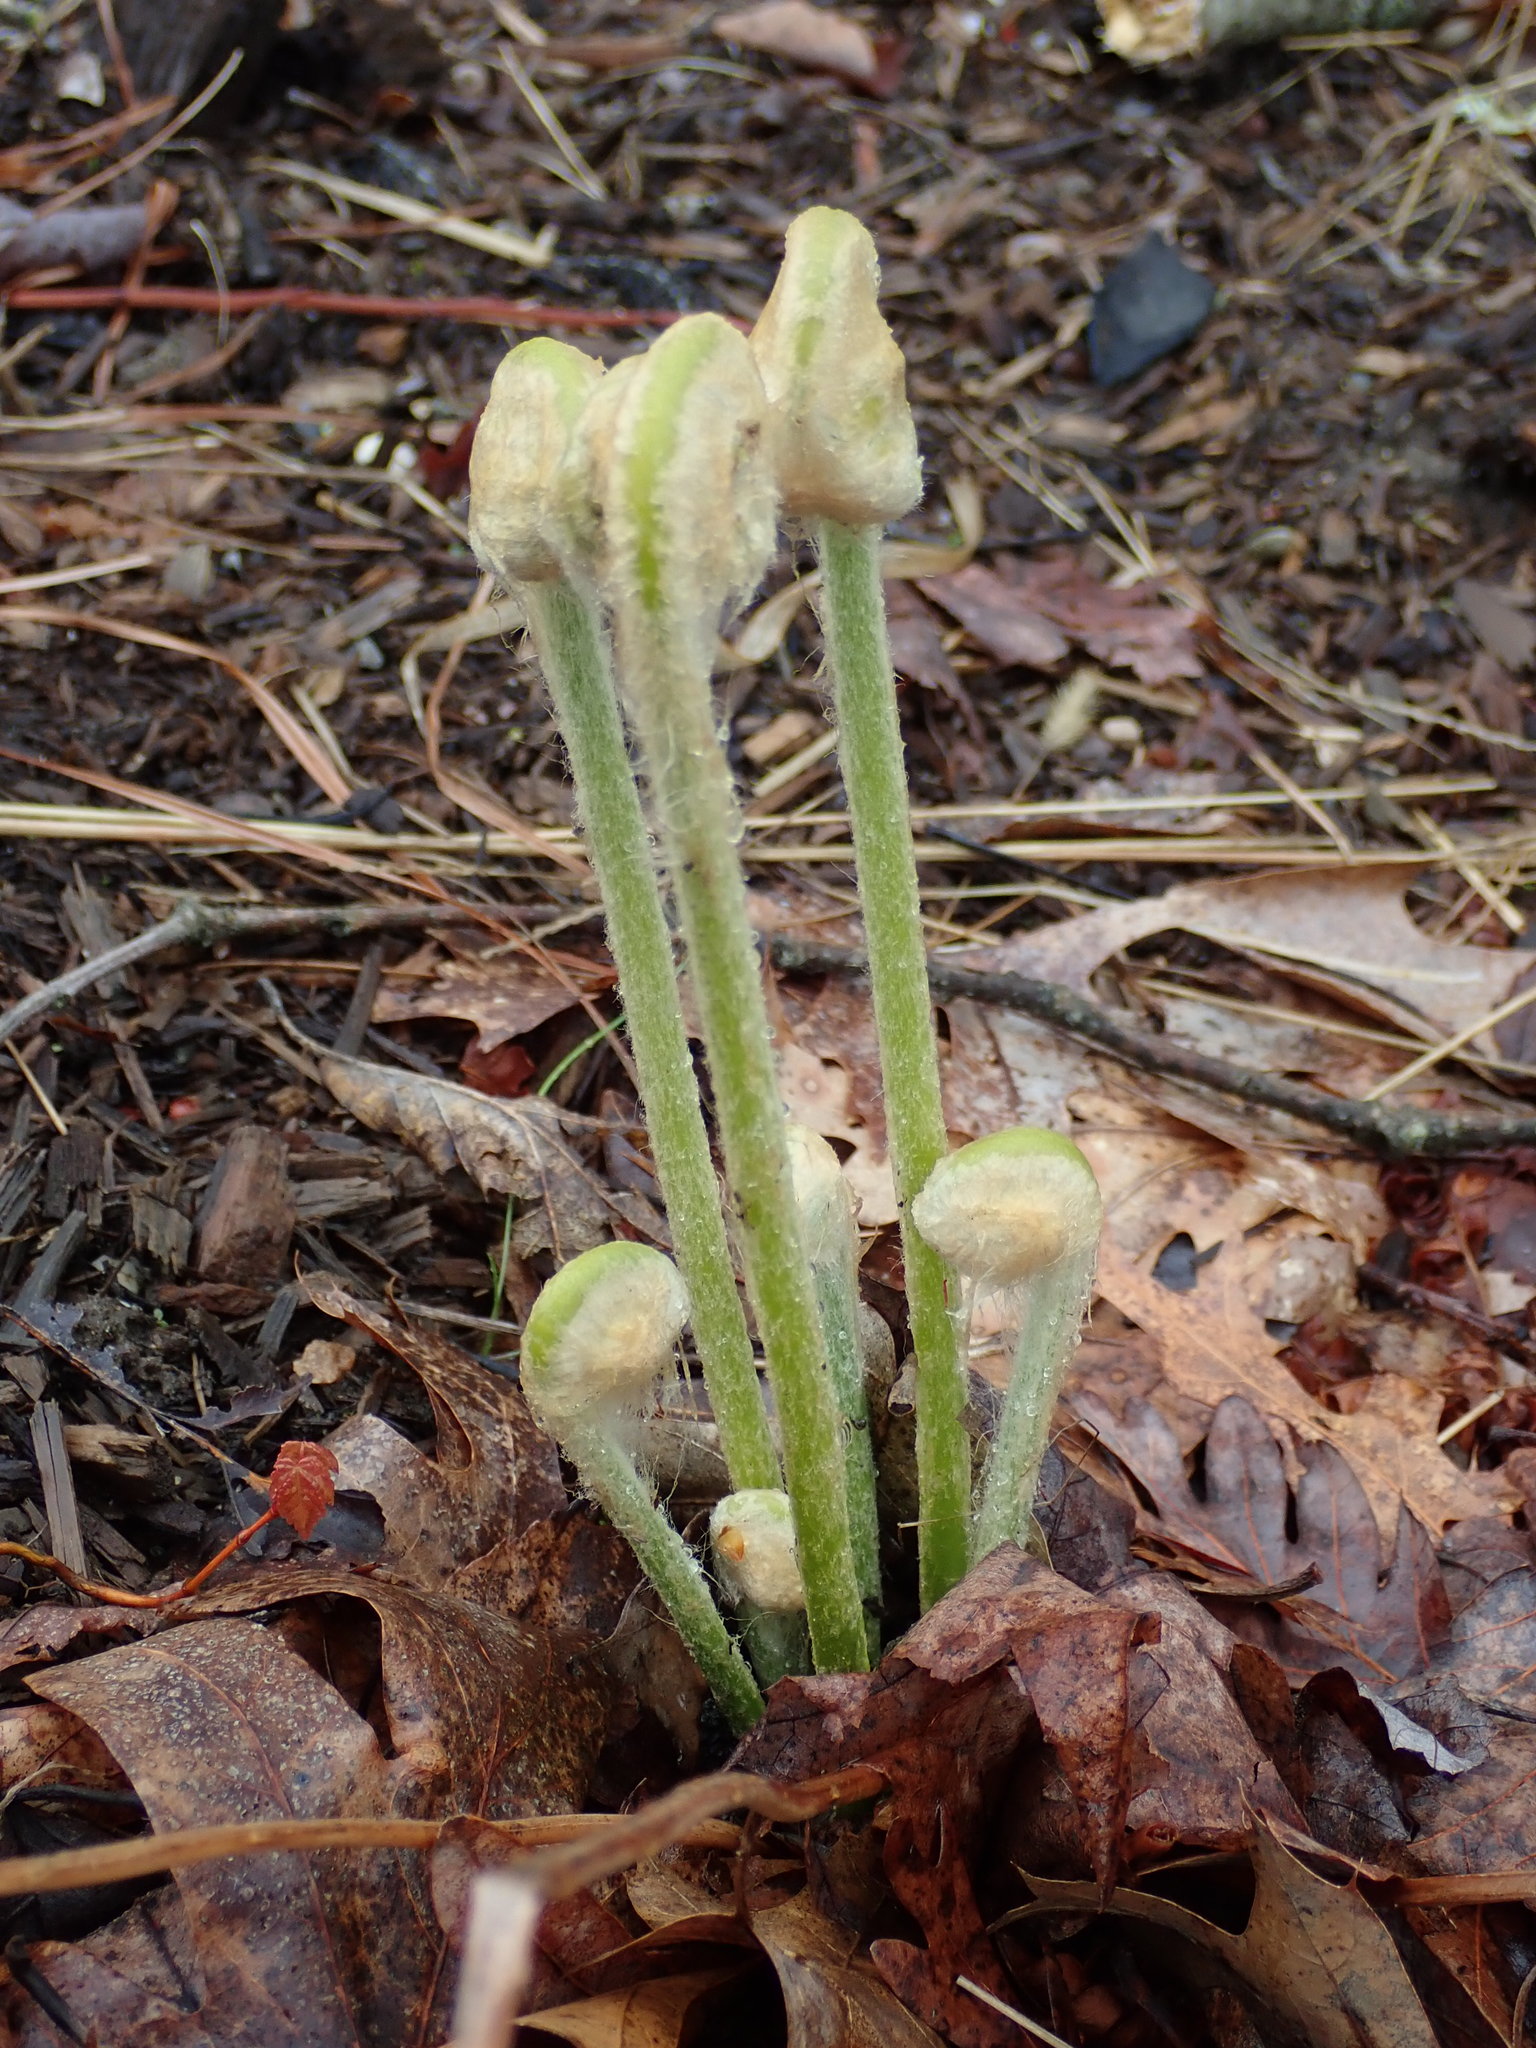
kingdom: Plantae
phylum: Tracheophyta
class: Polypodiopsida
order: Osmundales
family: Osmundaceae
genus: Osmundastrum
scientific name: Osmundastrum cinnamomeum
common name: Cinnamon fern
